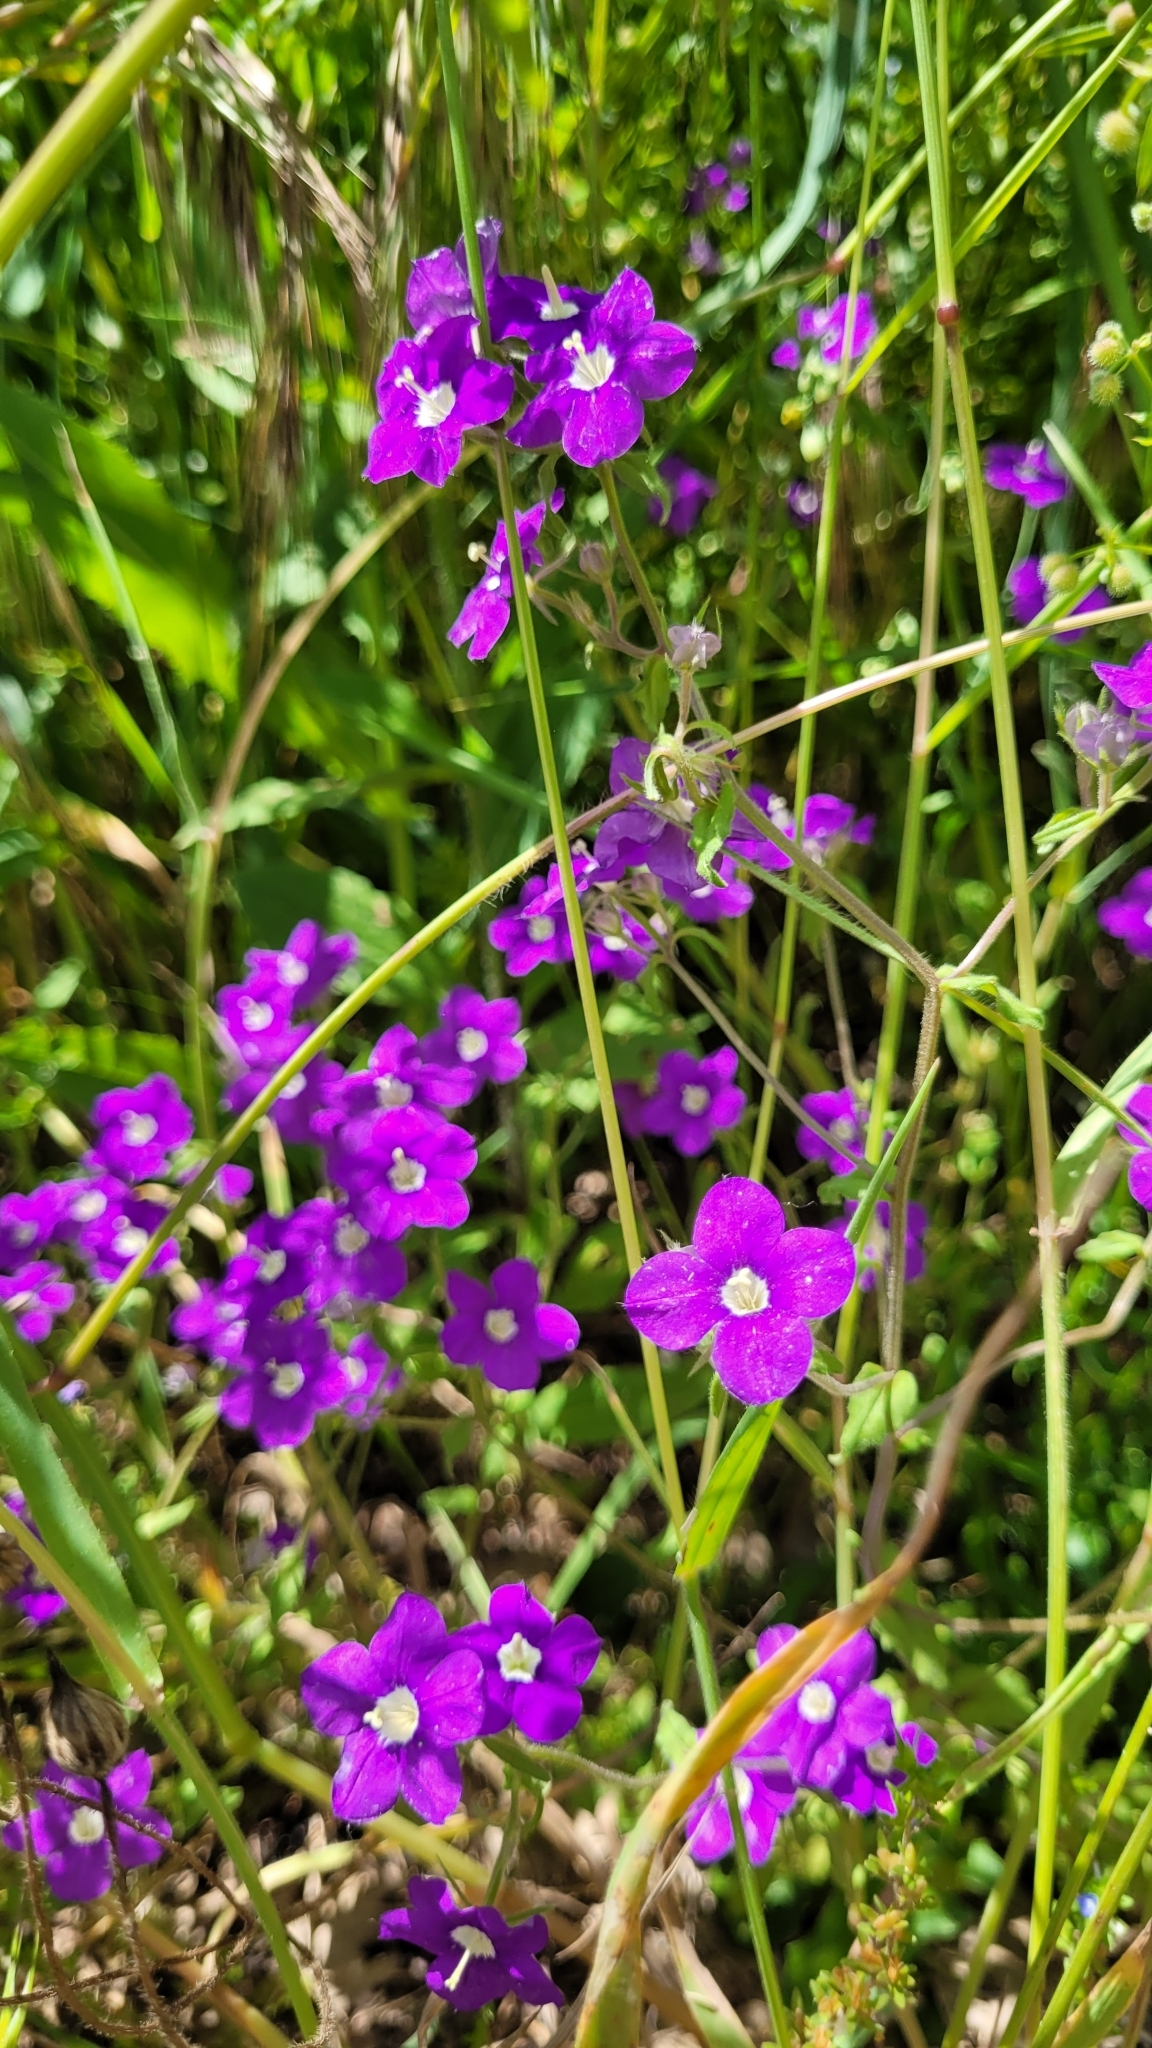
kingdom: Plantae
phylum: Tracheophyta
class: Magnoliopsida
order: Asterales
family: Campanulaceae
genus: Legousia
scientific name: Legousia speculum-veneris
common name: Large venus's-looking-glass
